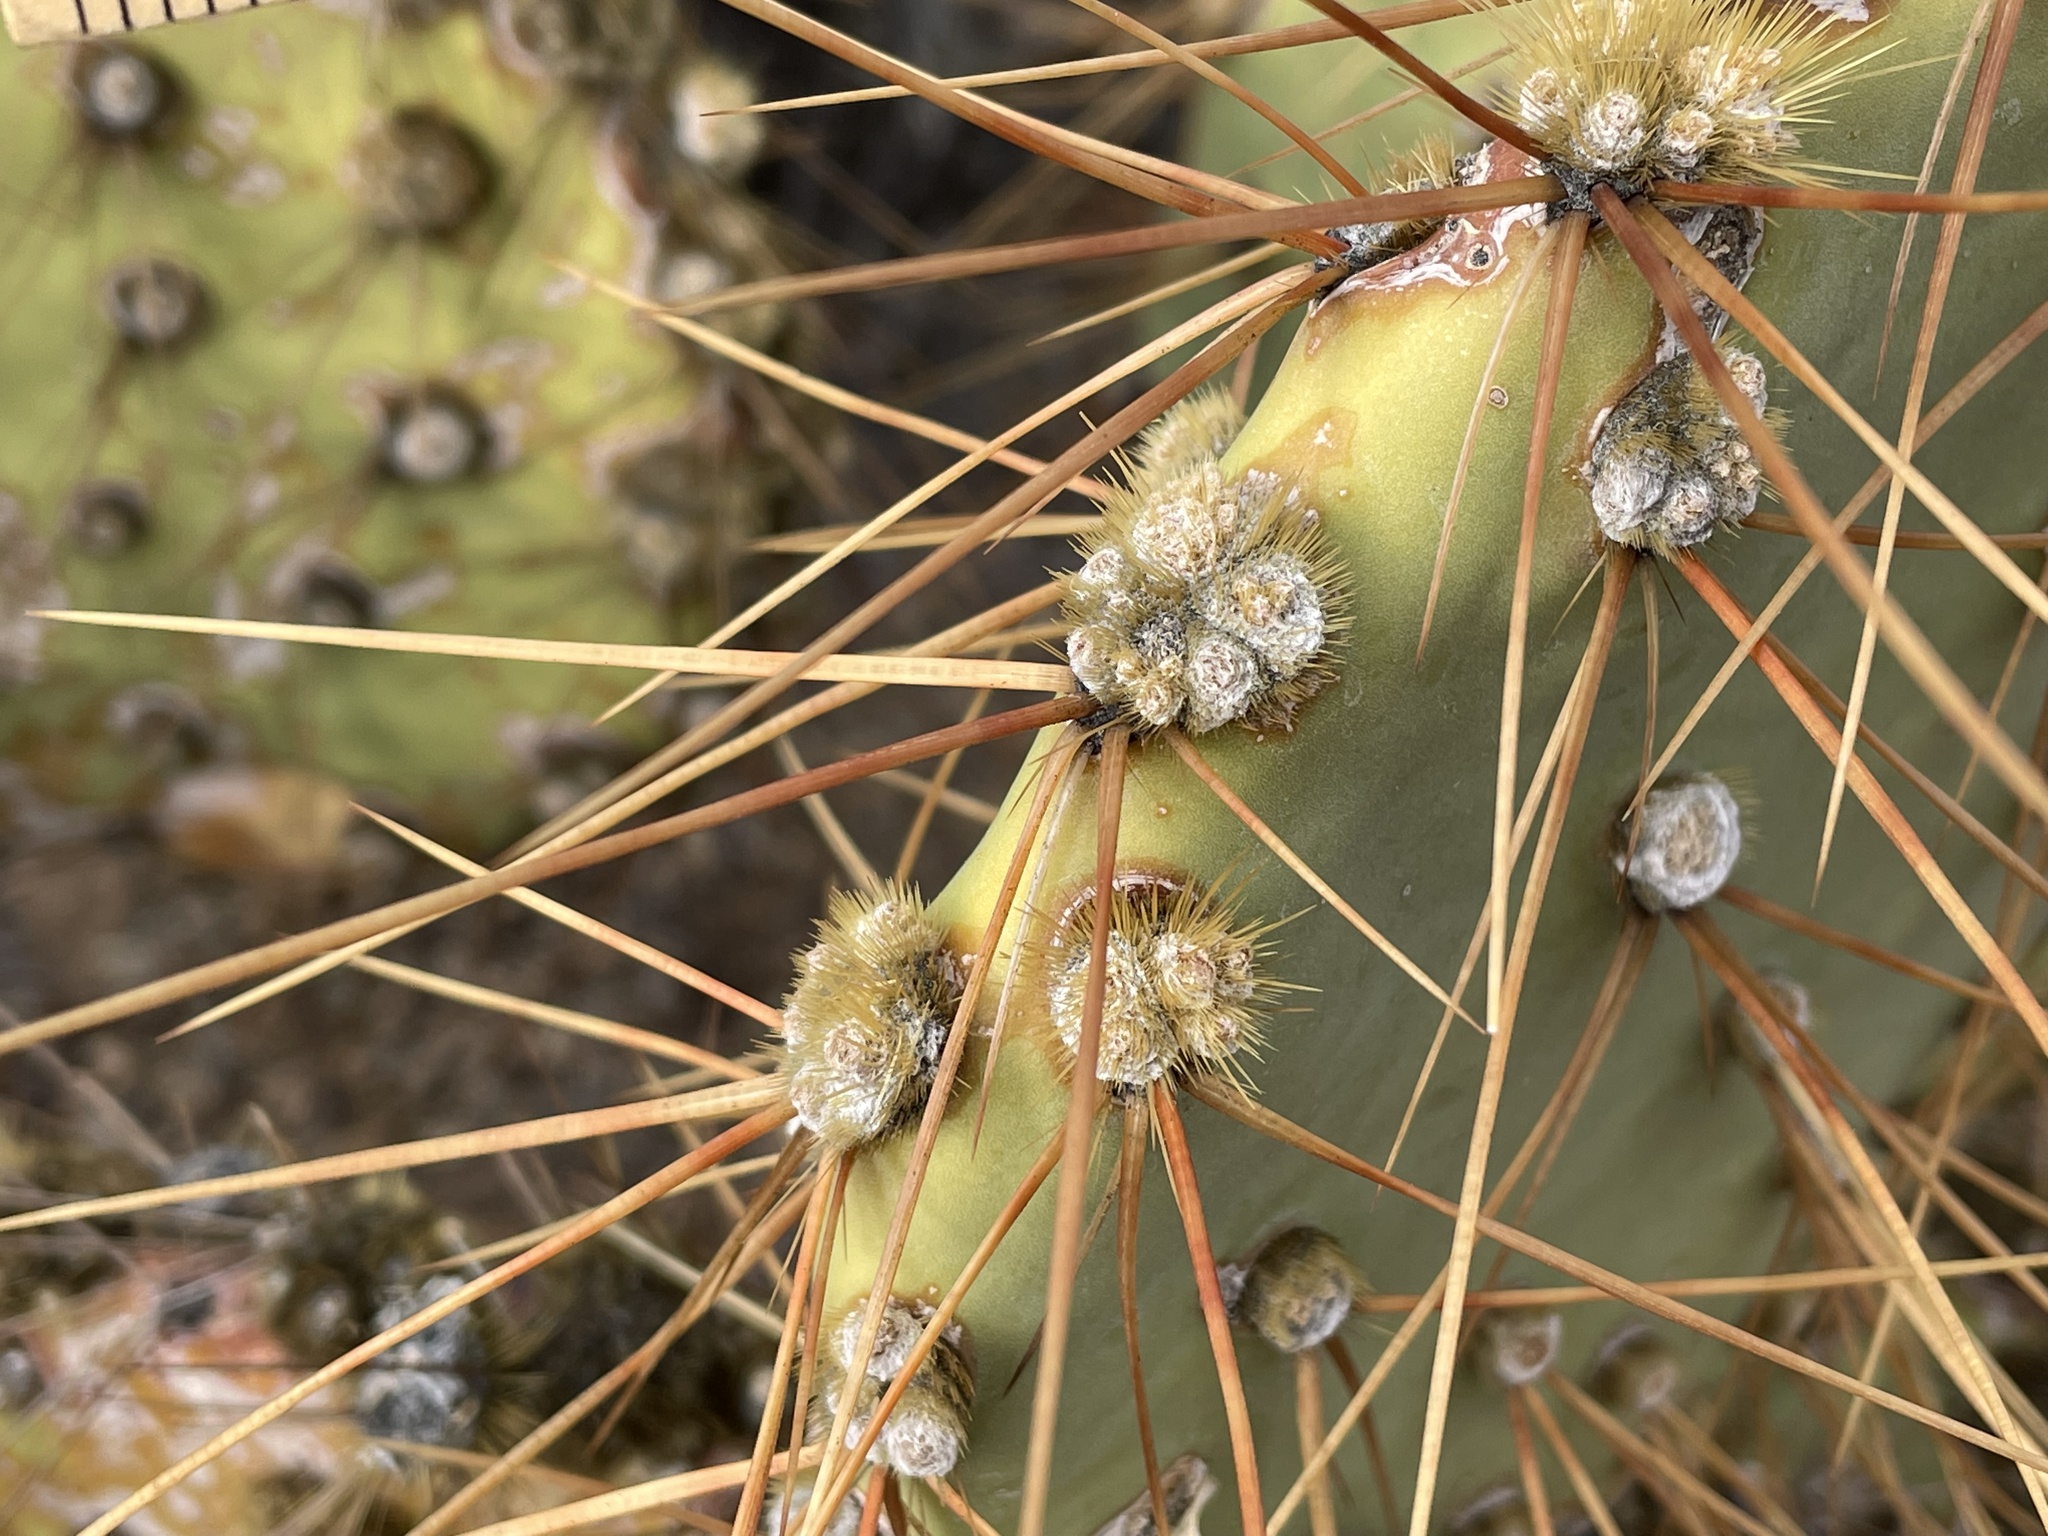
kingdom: Plantae
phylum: Tracheophyta
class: Magnoliopsida
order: Caryophyllales
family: Cactaceae
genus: Opuntia
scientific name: Opuntia curvispina
